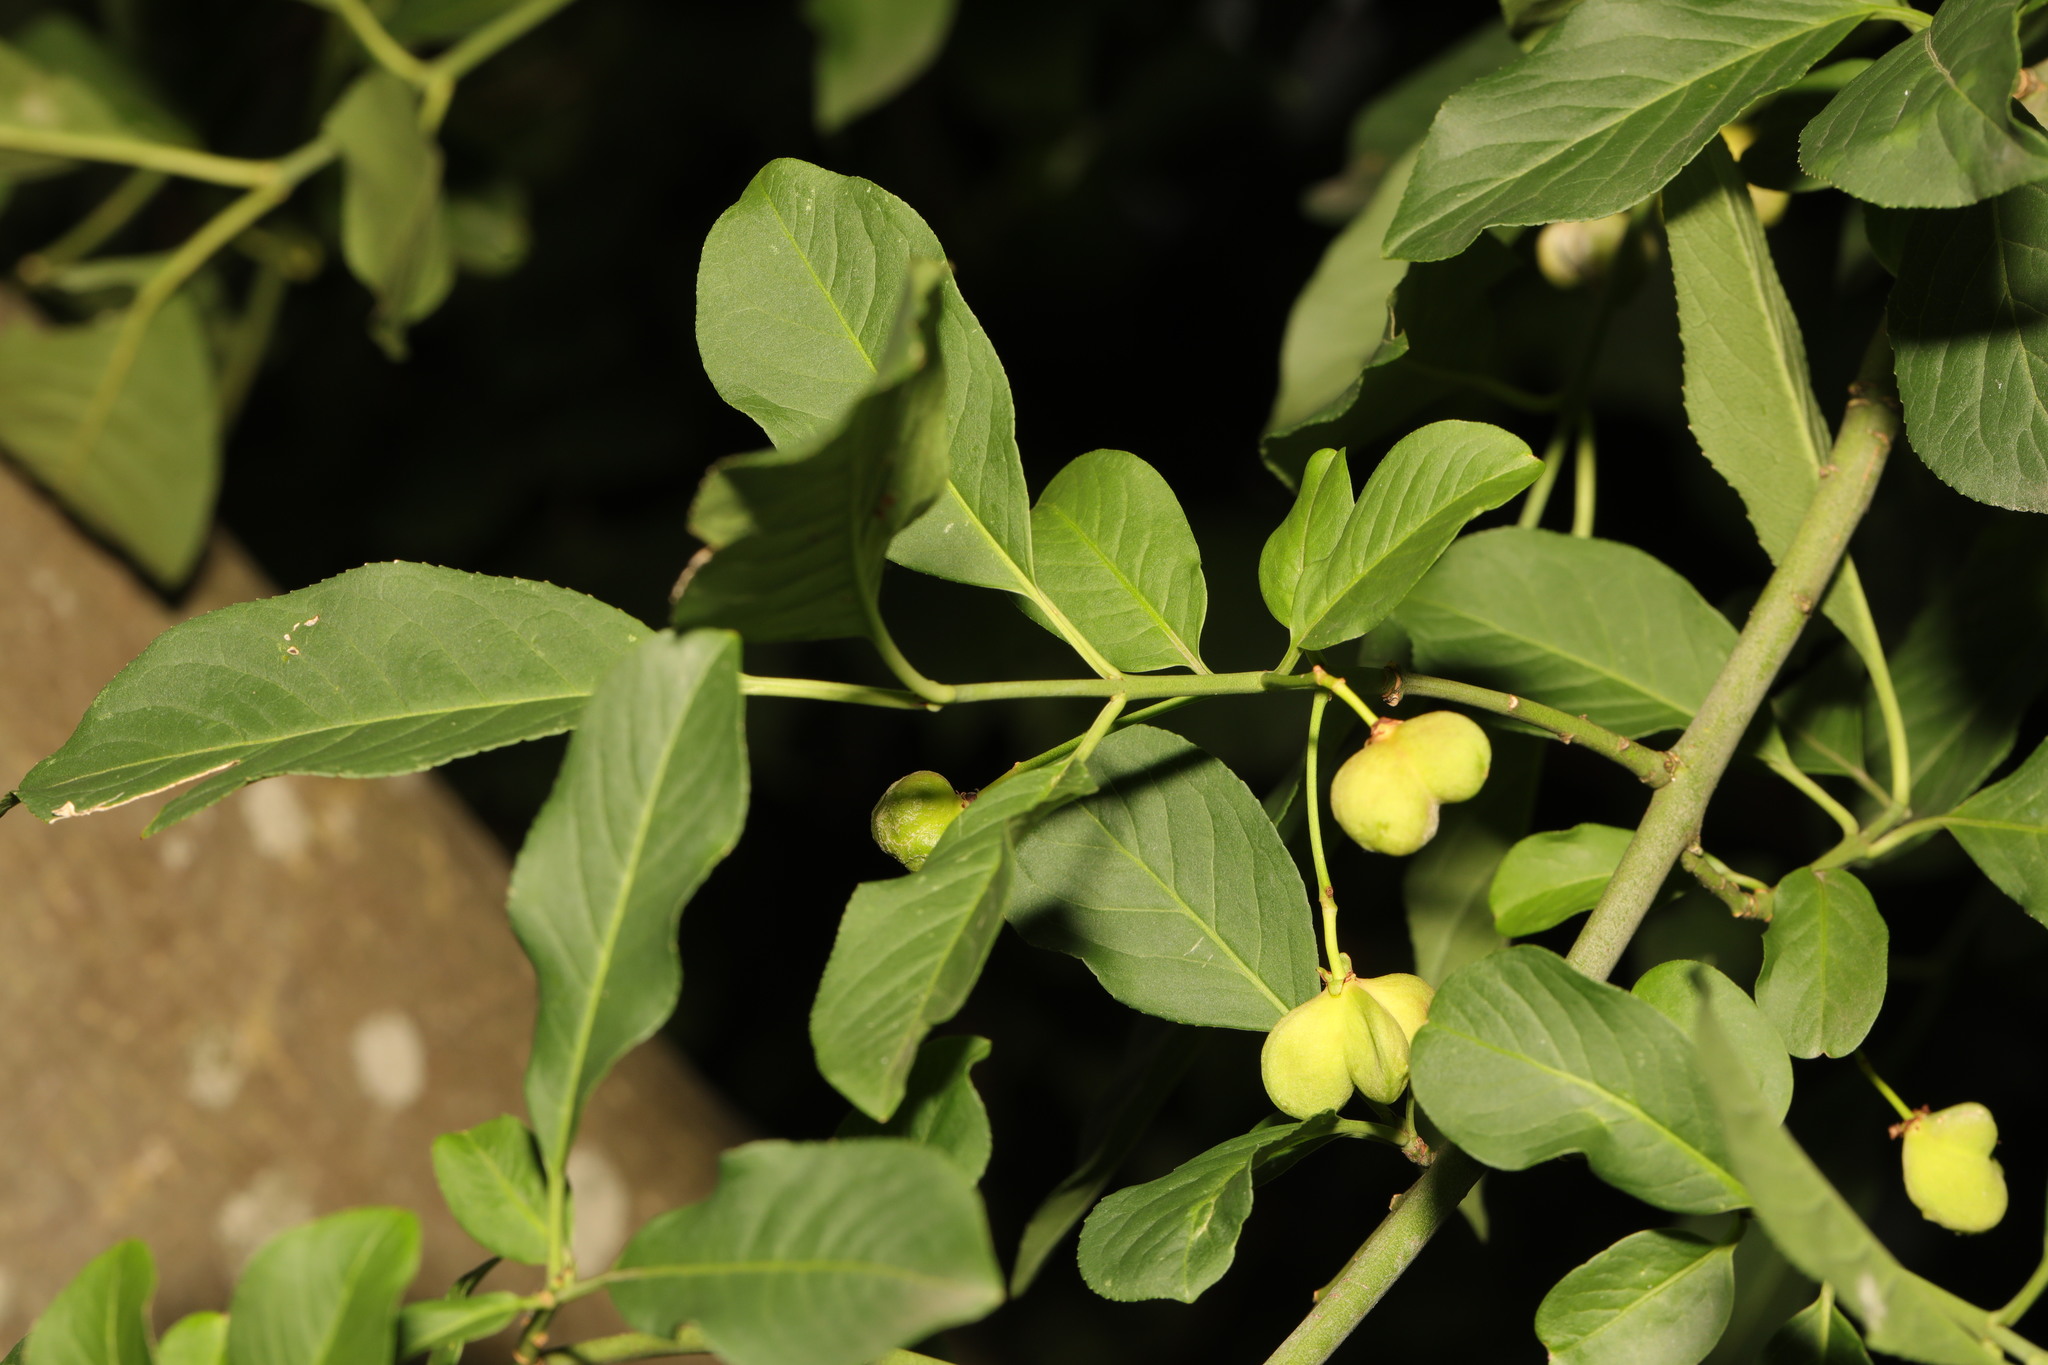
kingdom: Plantae
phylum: Tracheophyta
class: Magnoliopsida
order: Celastrales
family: Celastraceae
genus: Euonymus
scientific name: Euonymus europaeus
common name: Spindle
